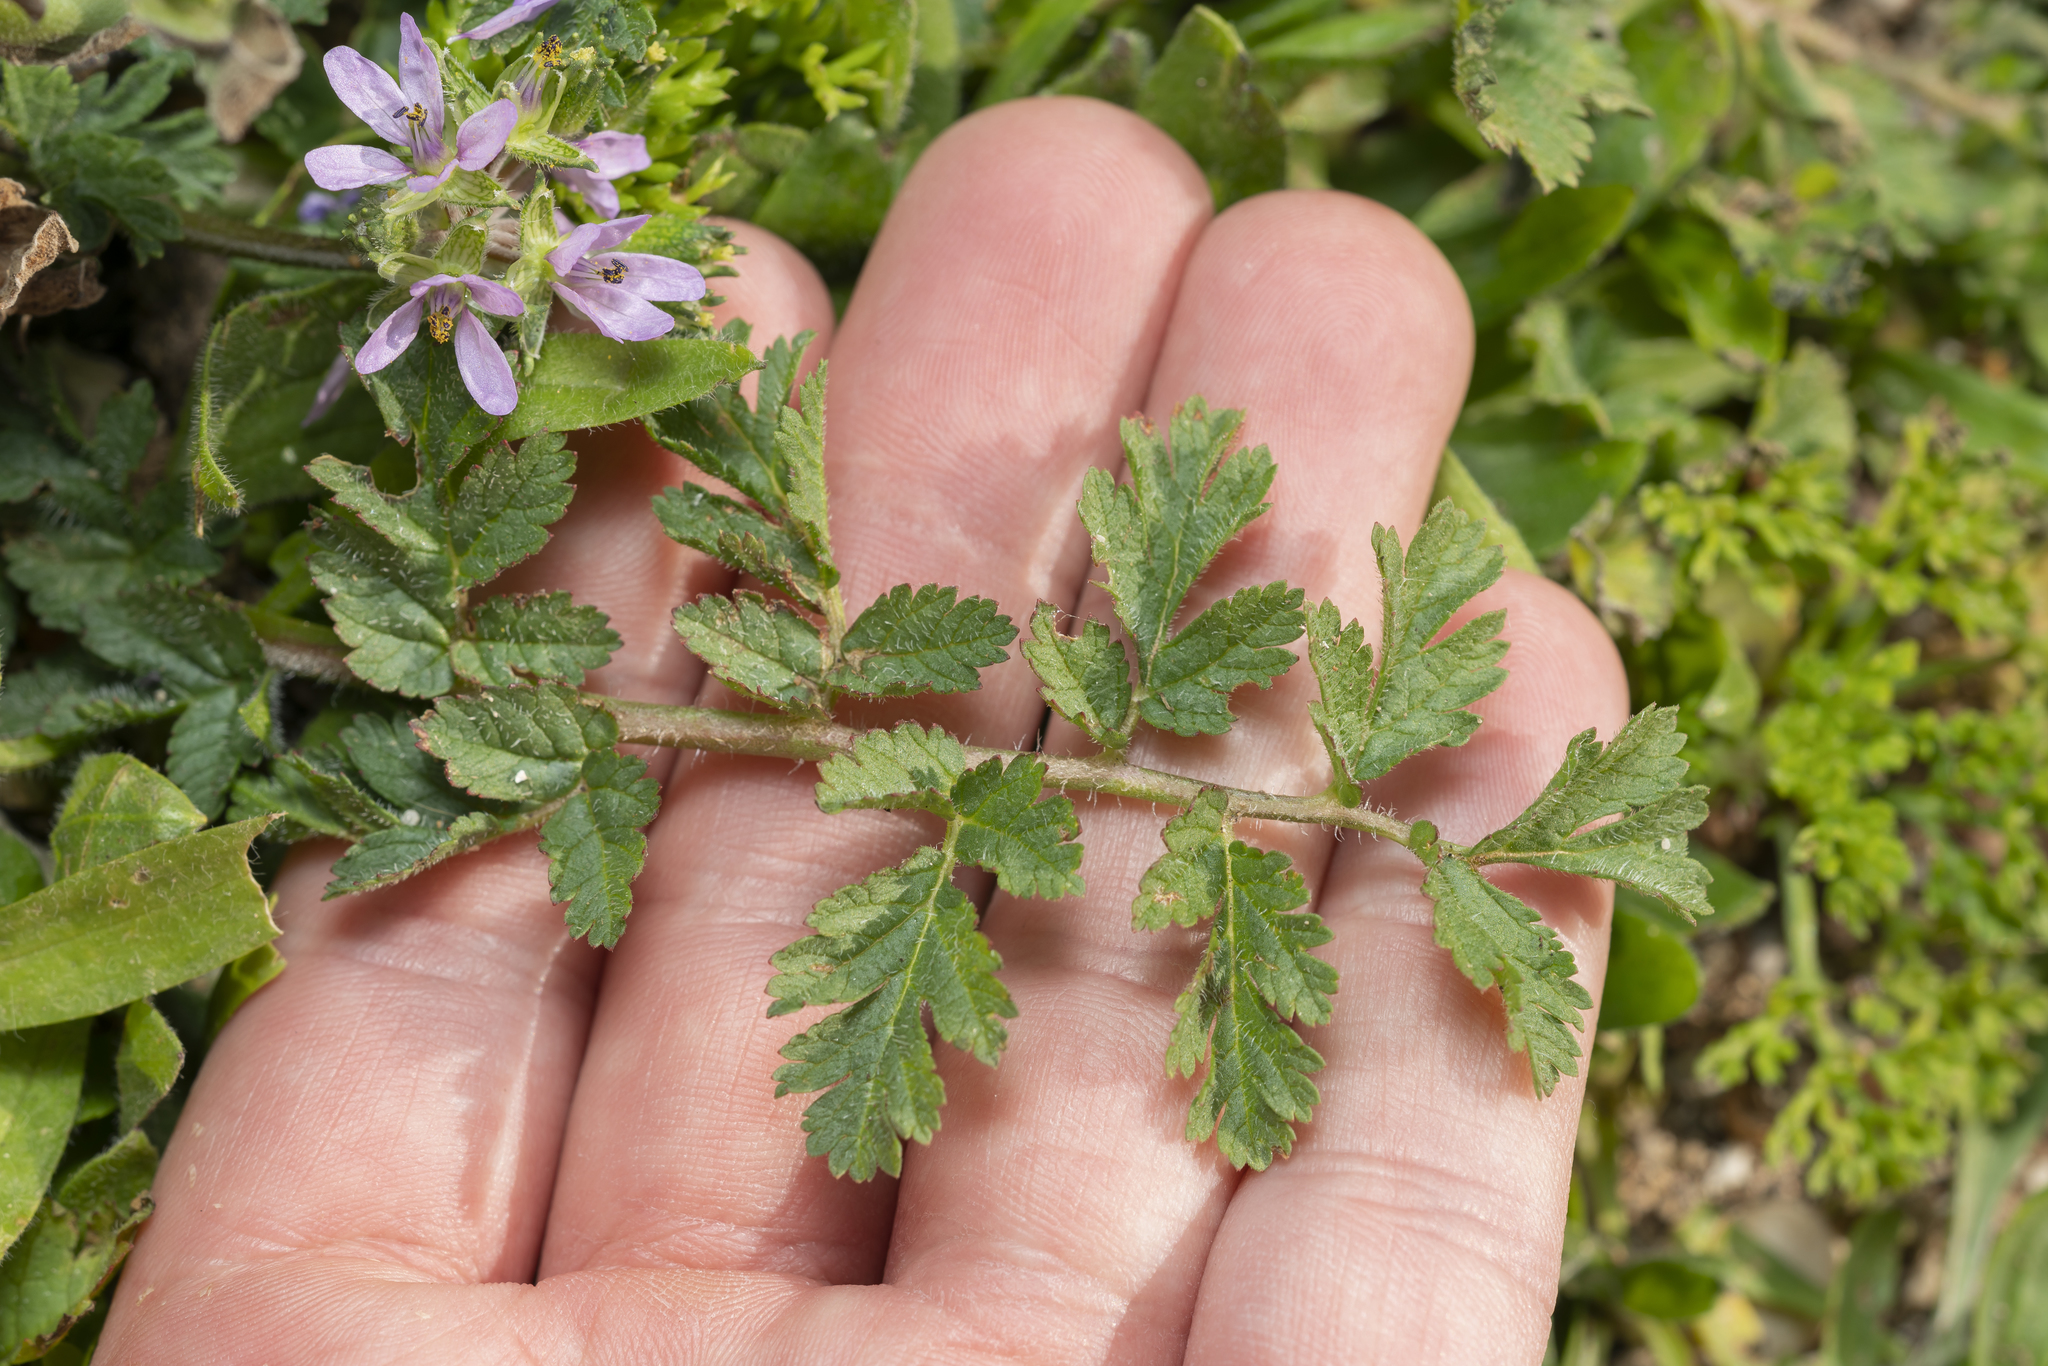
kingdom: Plantae
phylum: Tracheophyta
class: Magnoliopsida
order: Geraniales
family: Geraniaceae
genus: Erodium
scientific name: Erodium cicutarium
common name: Common stork's-bill
